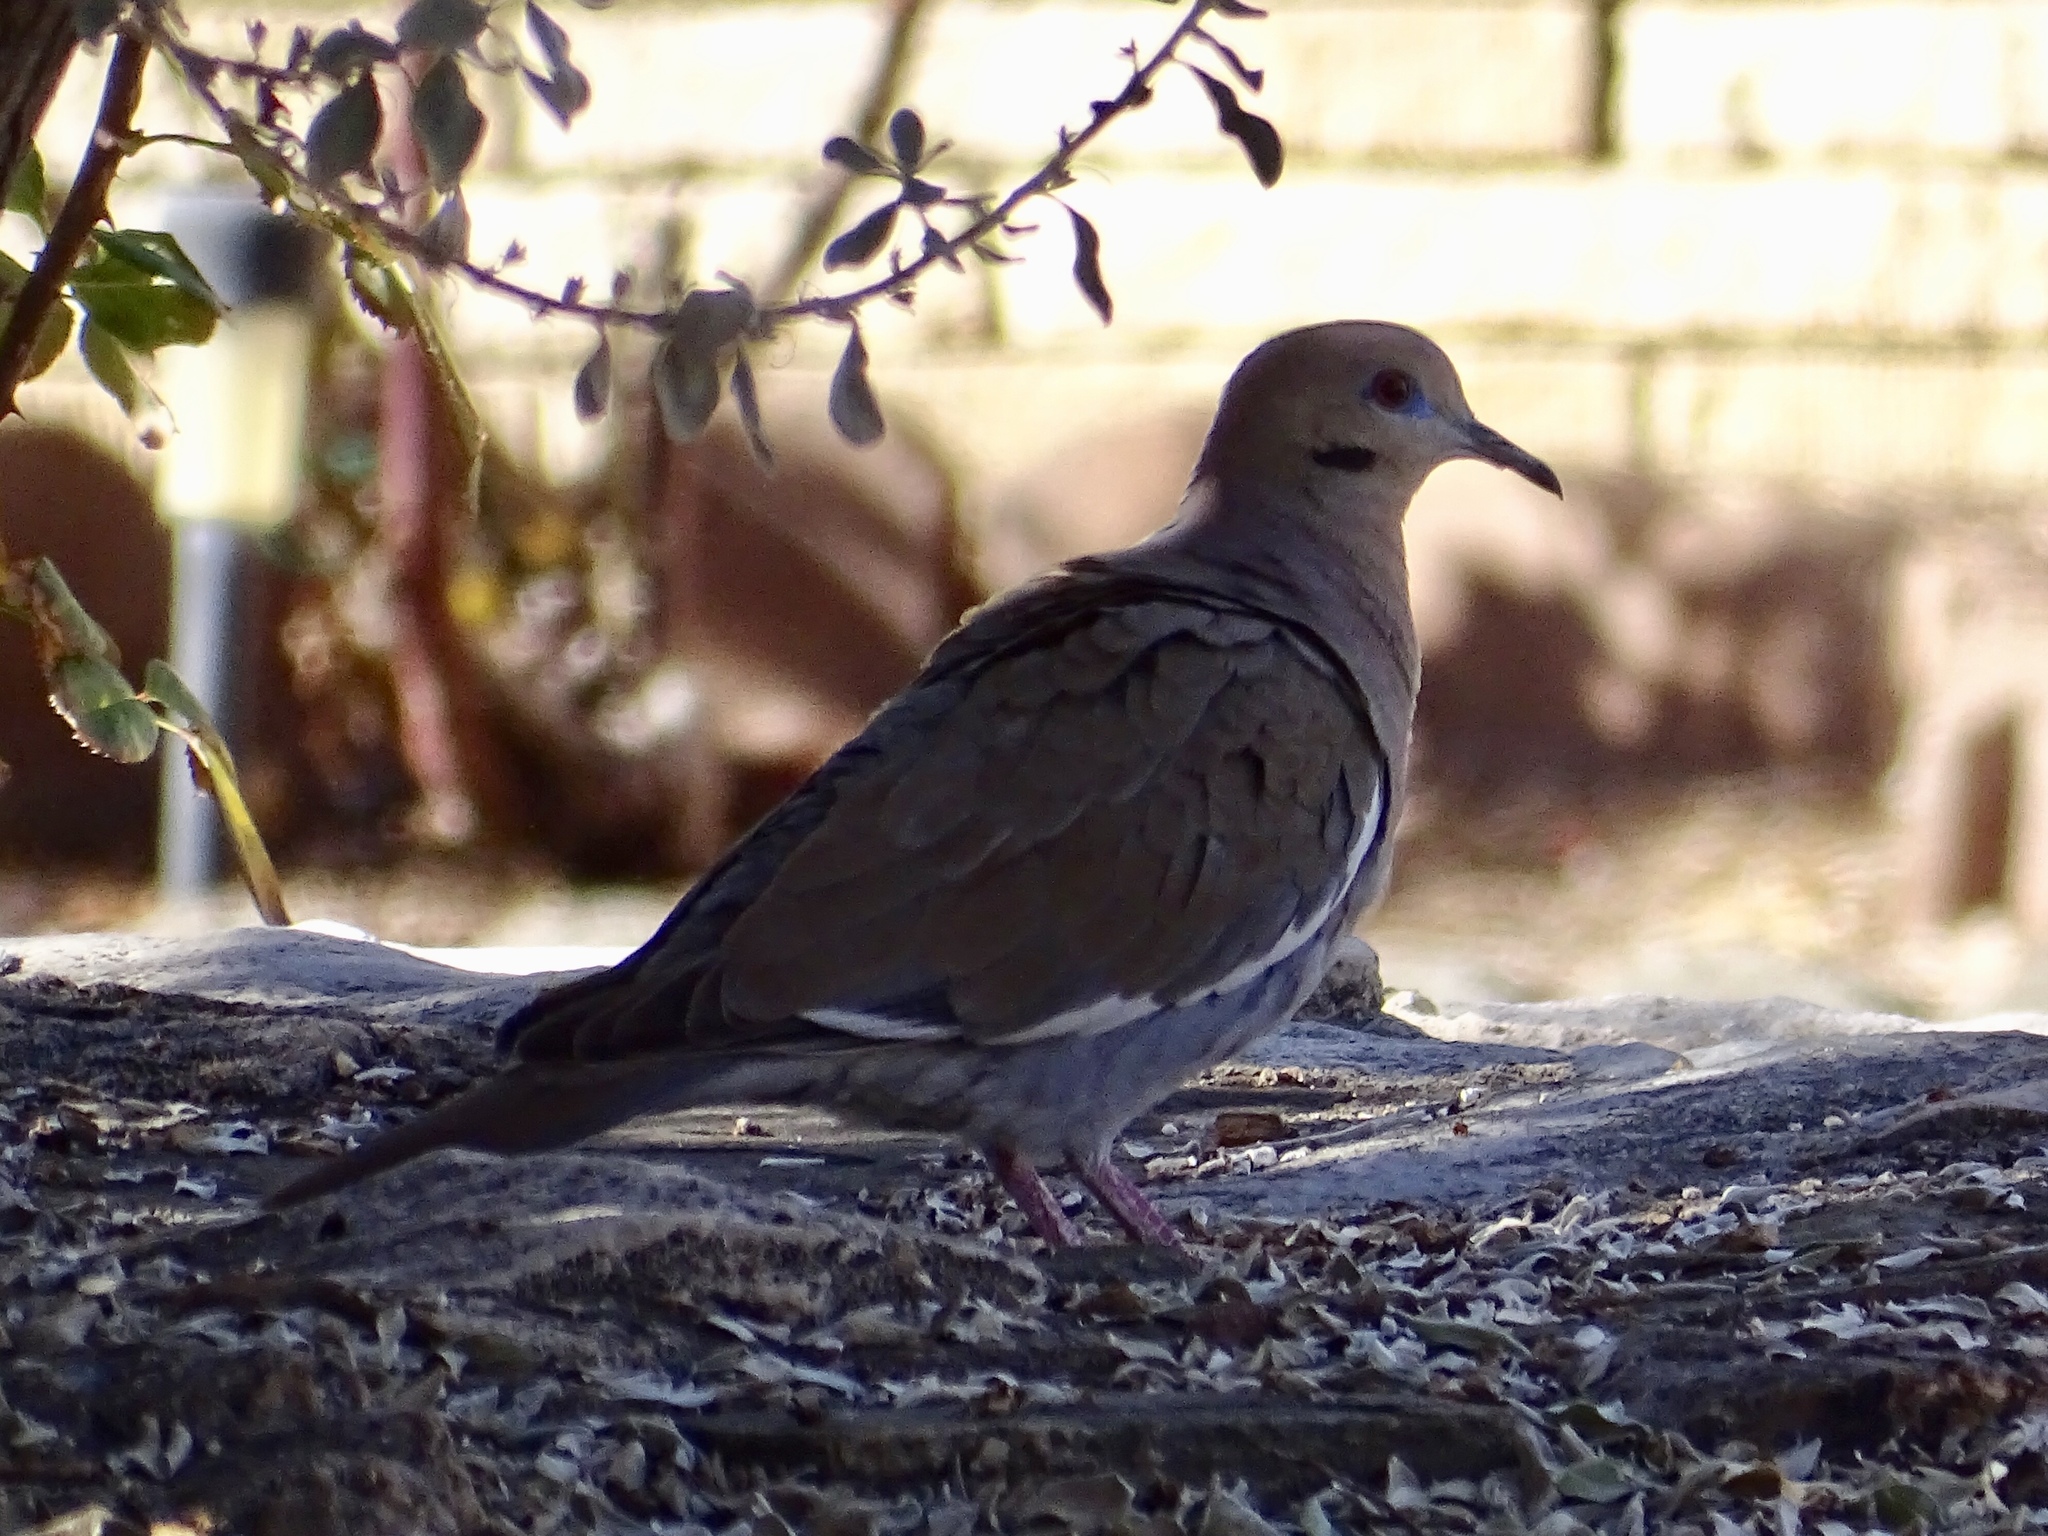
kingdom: Animalia
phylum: Chordata
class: Aves
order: Columbiformes
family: Columbidae
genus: Zenaida
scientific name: Zenaida asiatica
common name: White-winged dove
